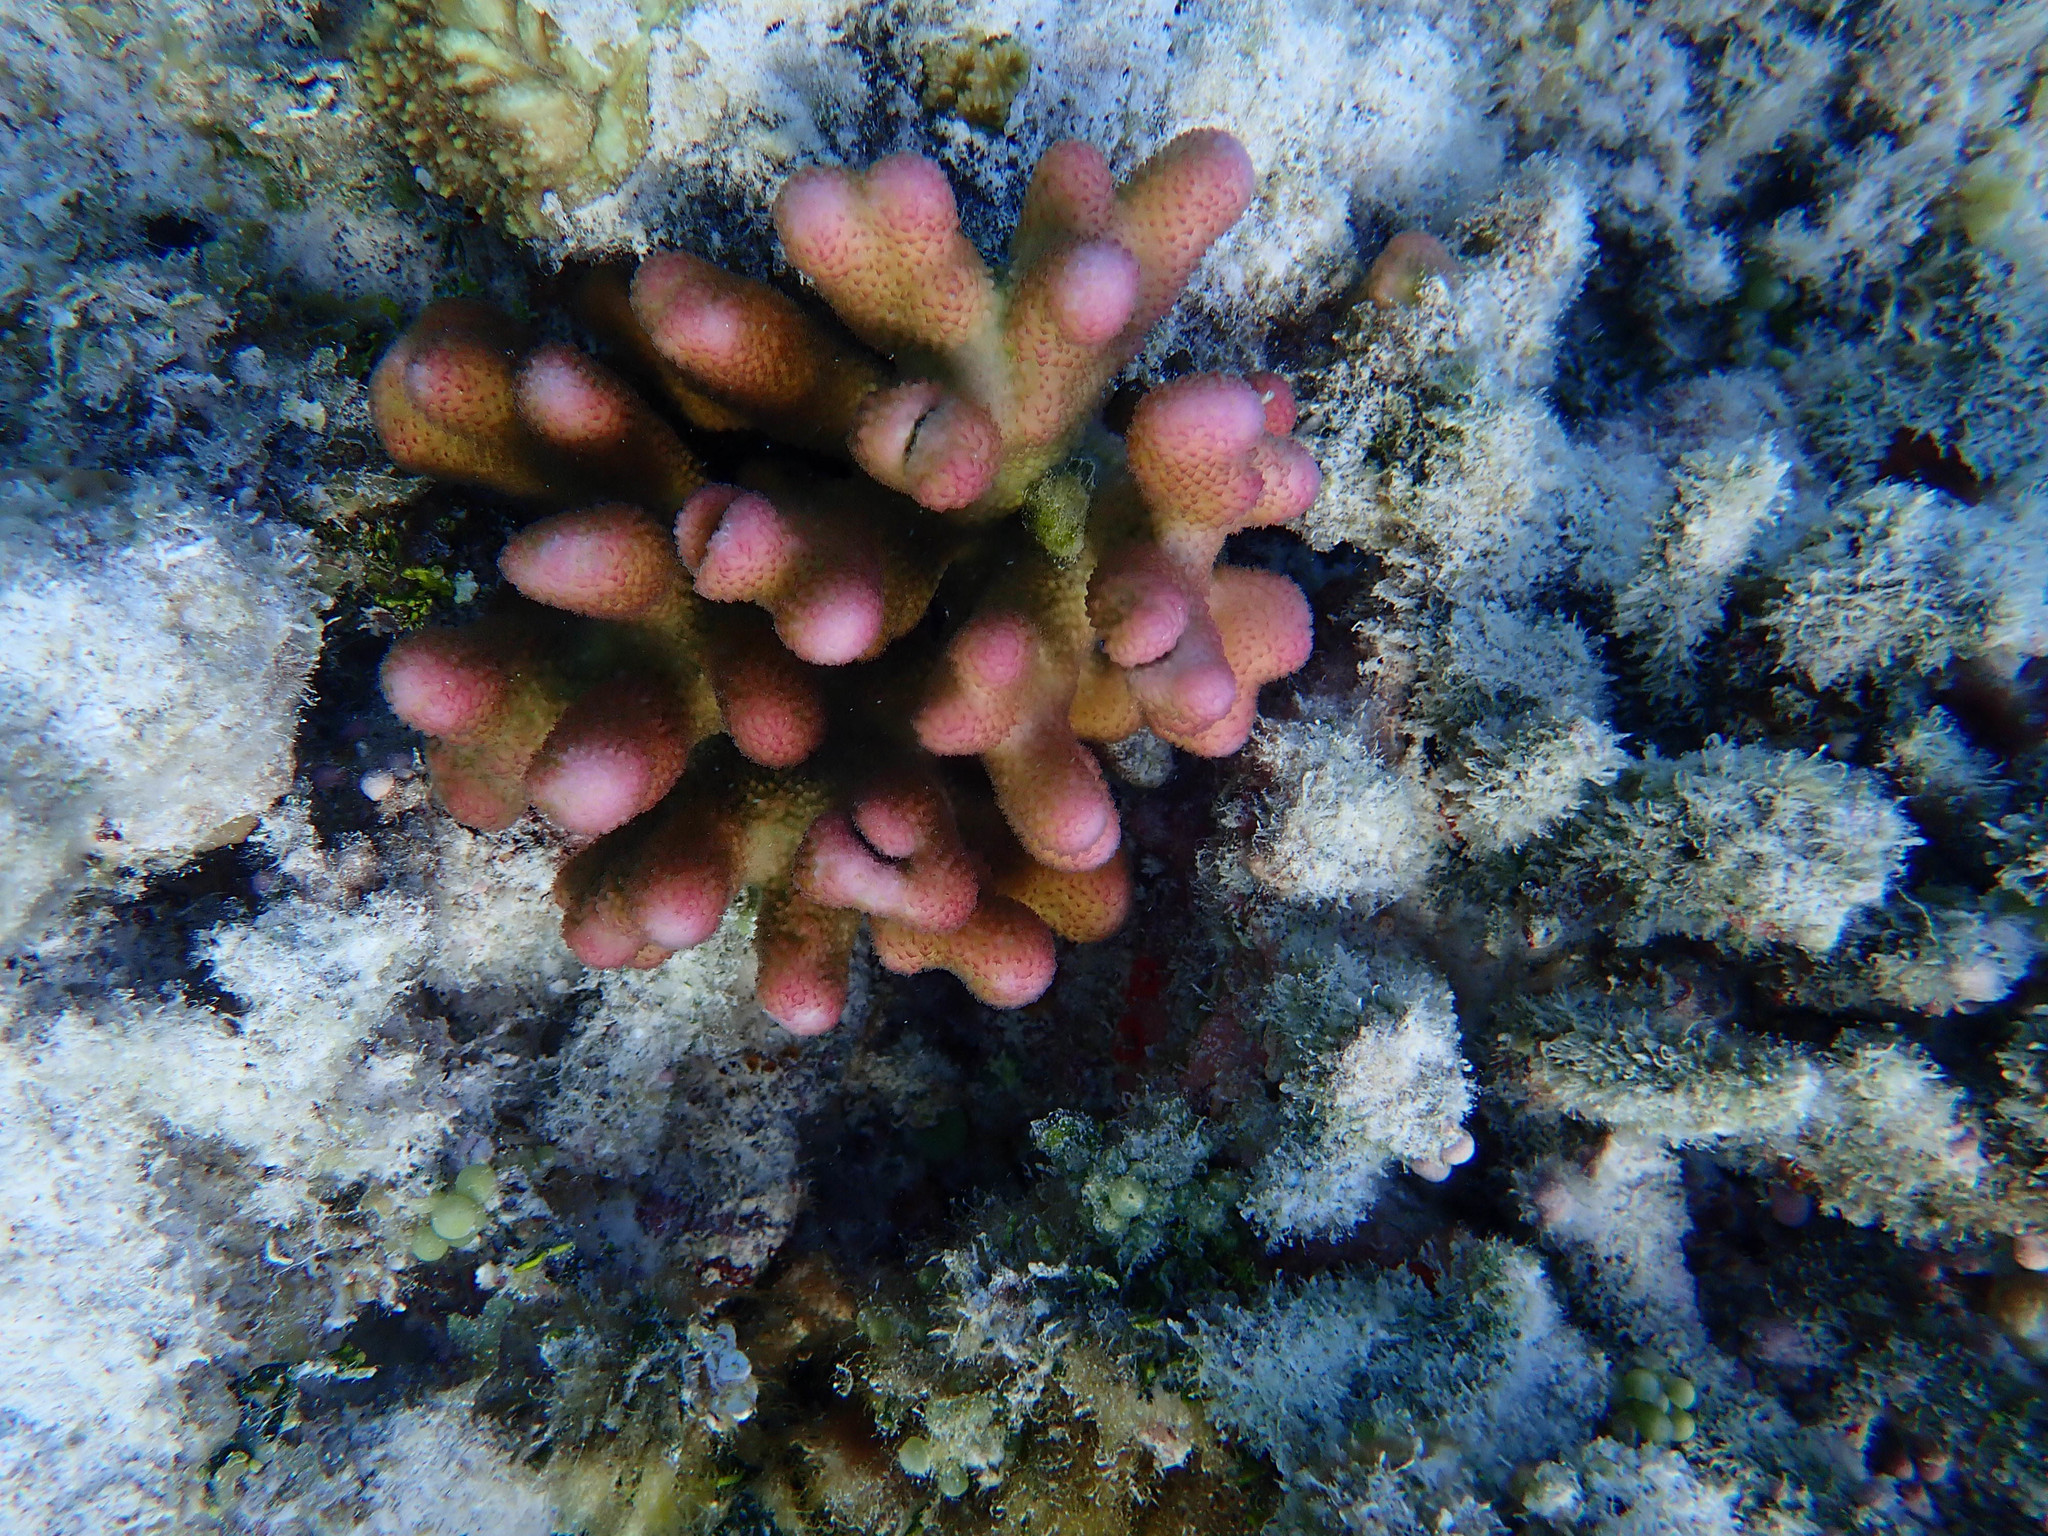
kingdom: Animalia
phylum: Cnidaria
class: Anthozoa
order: Scleractinia
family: Pocilloporidae
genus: Stylophora
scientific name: Stylophora pistillata
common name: Hood coral
